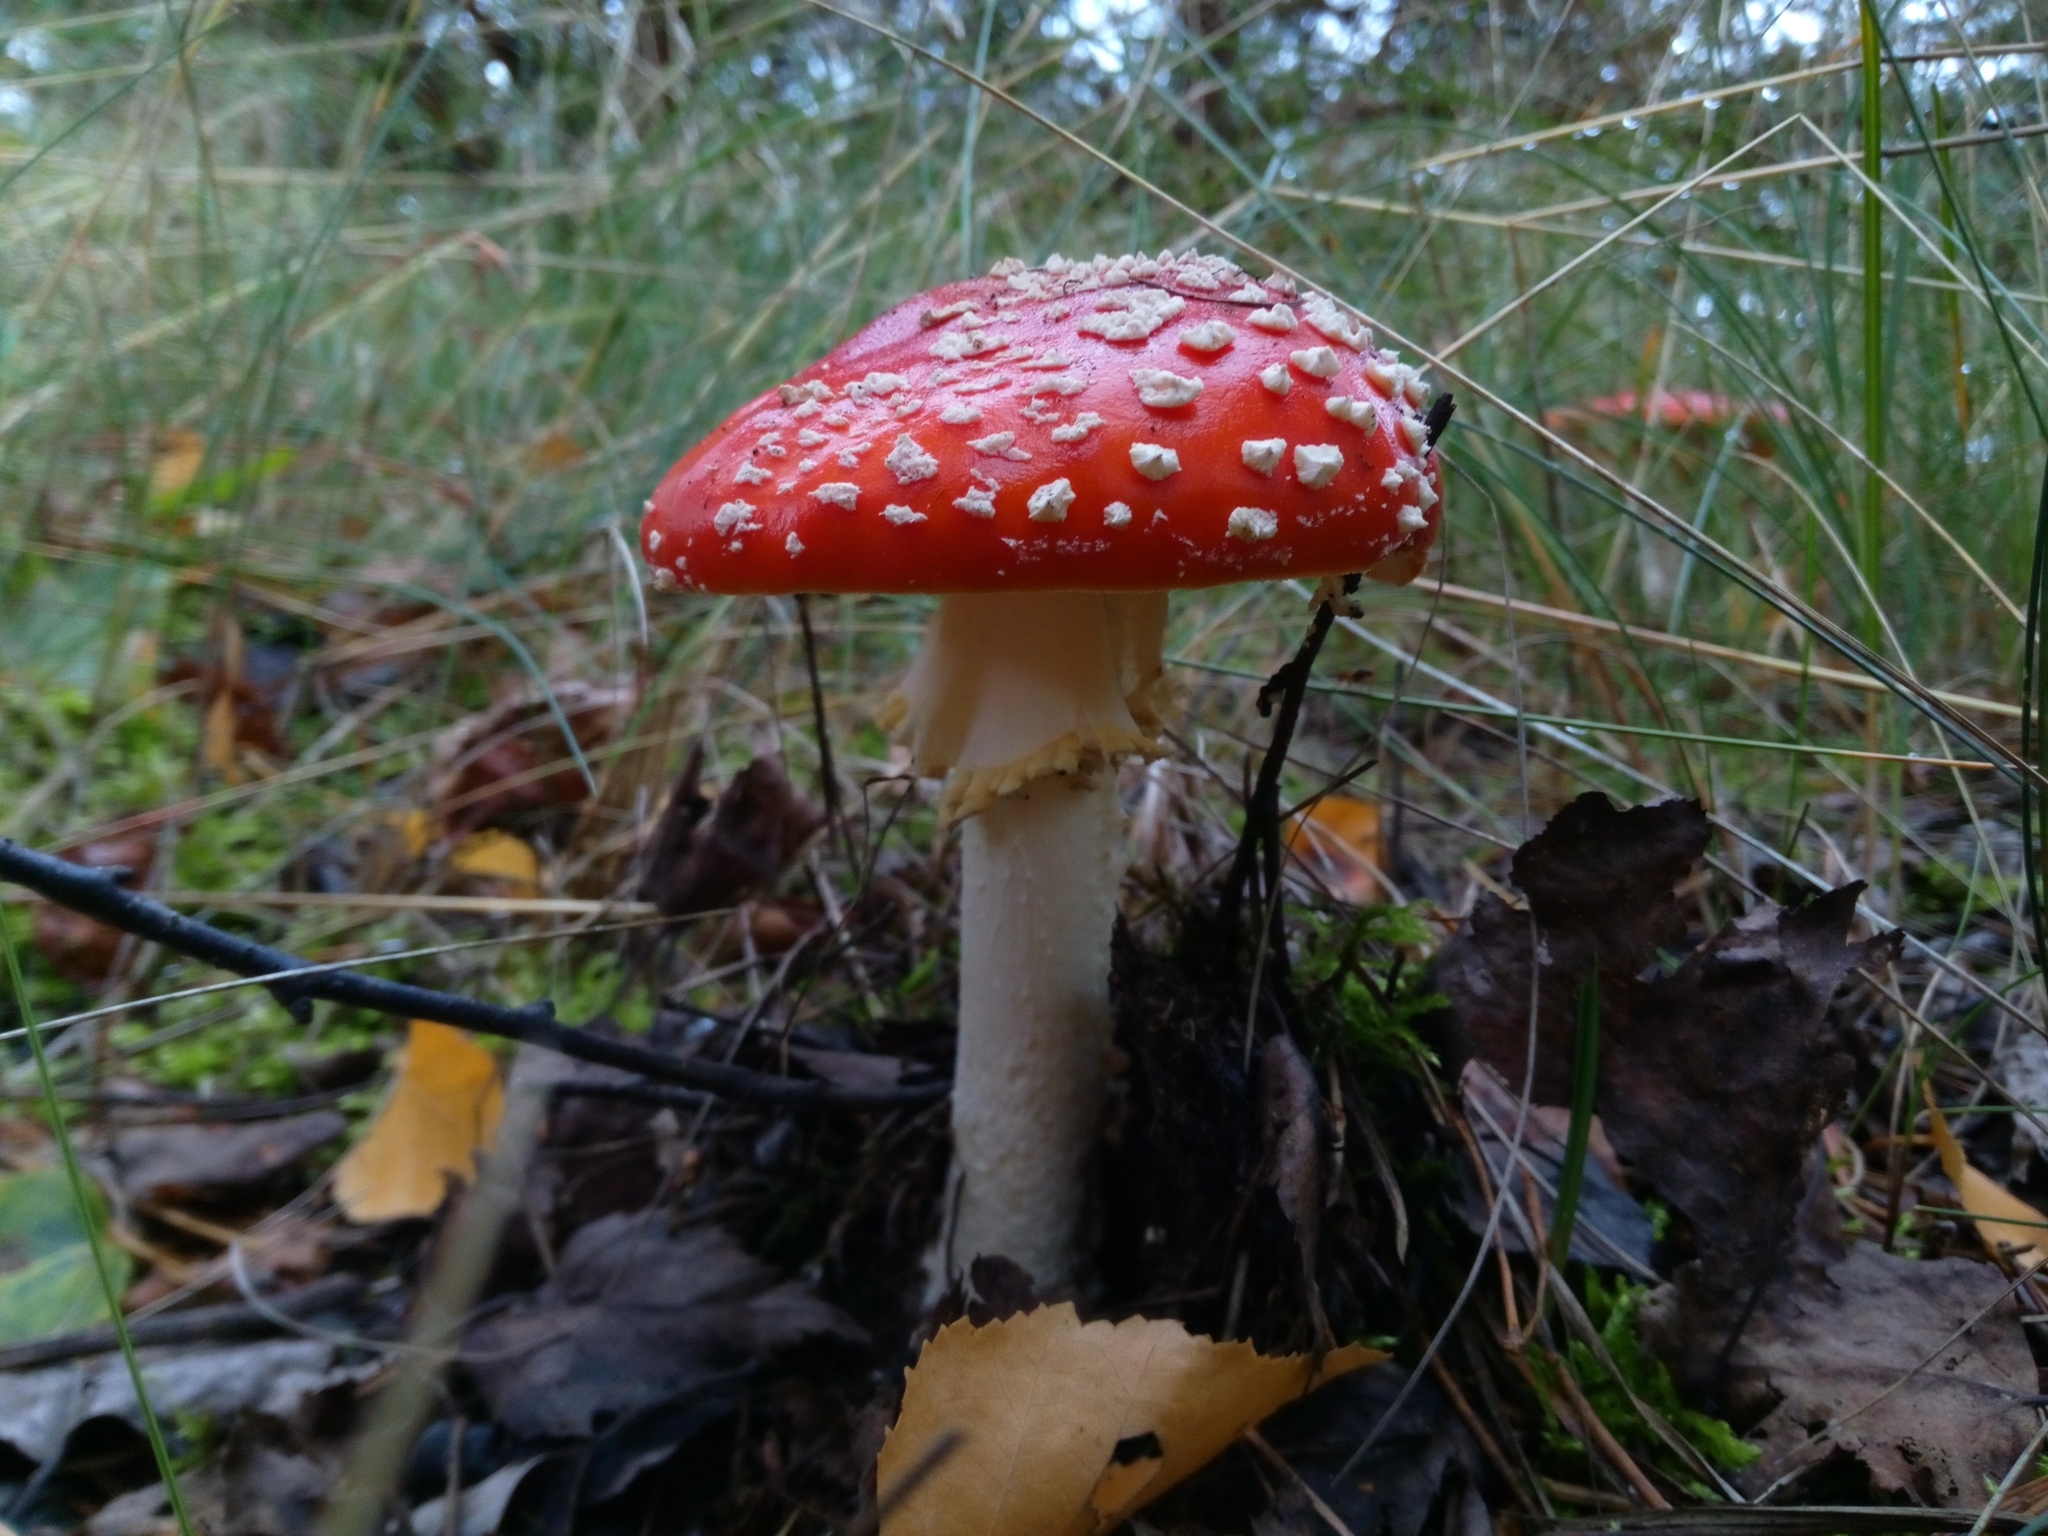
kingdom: Fungi
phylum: Basidiomycota
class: Agaricomycetes
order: Agaricales
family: Amanitaceae
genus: Amanita
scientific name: Amanita muscaria
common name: Fly agaric
